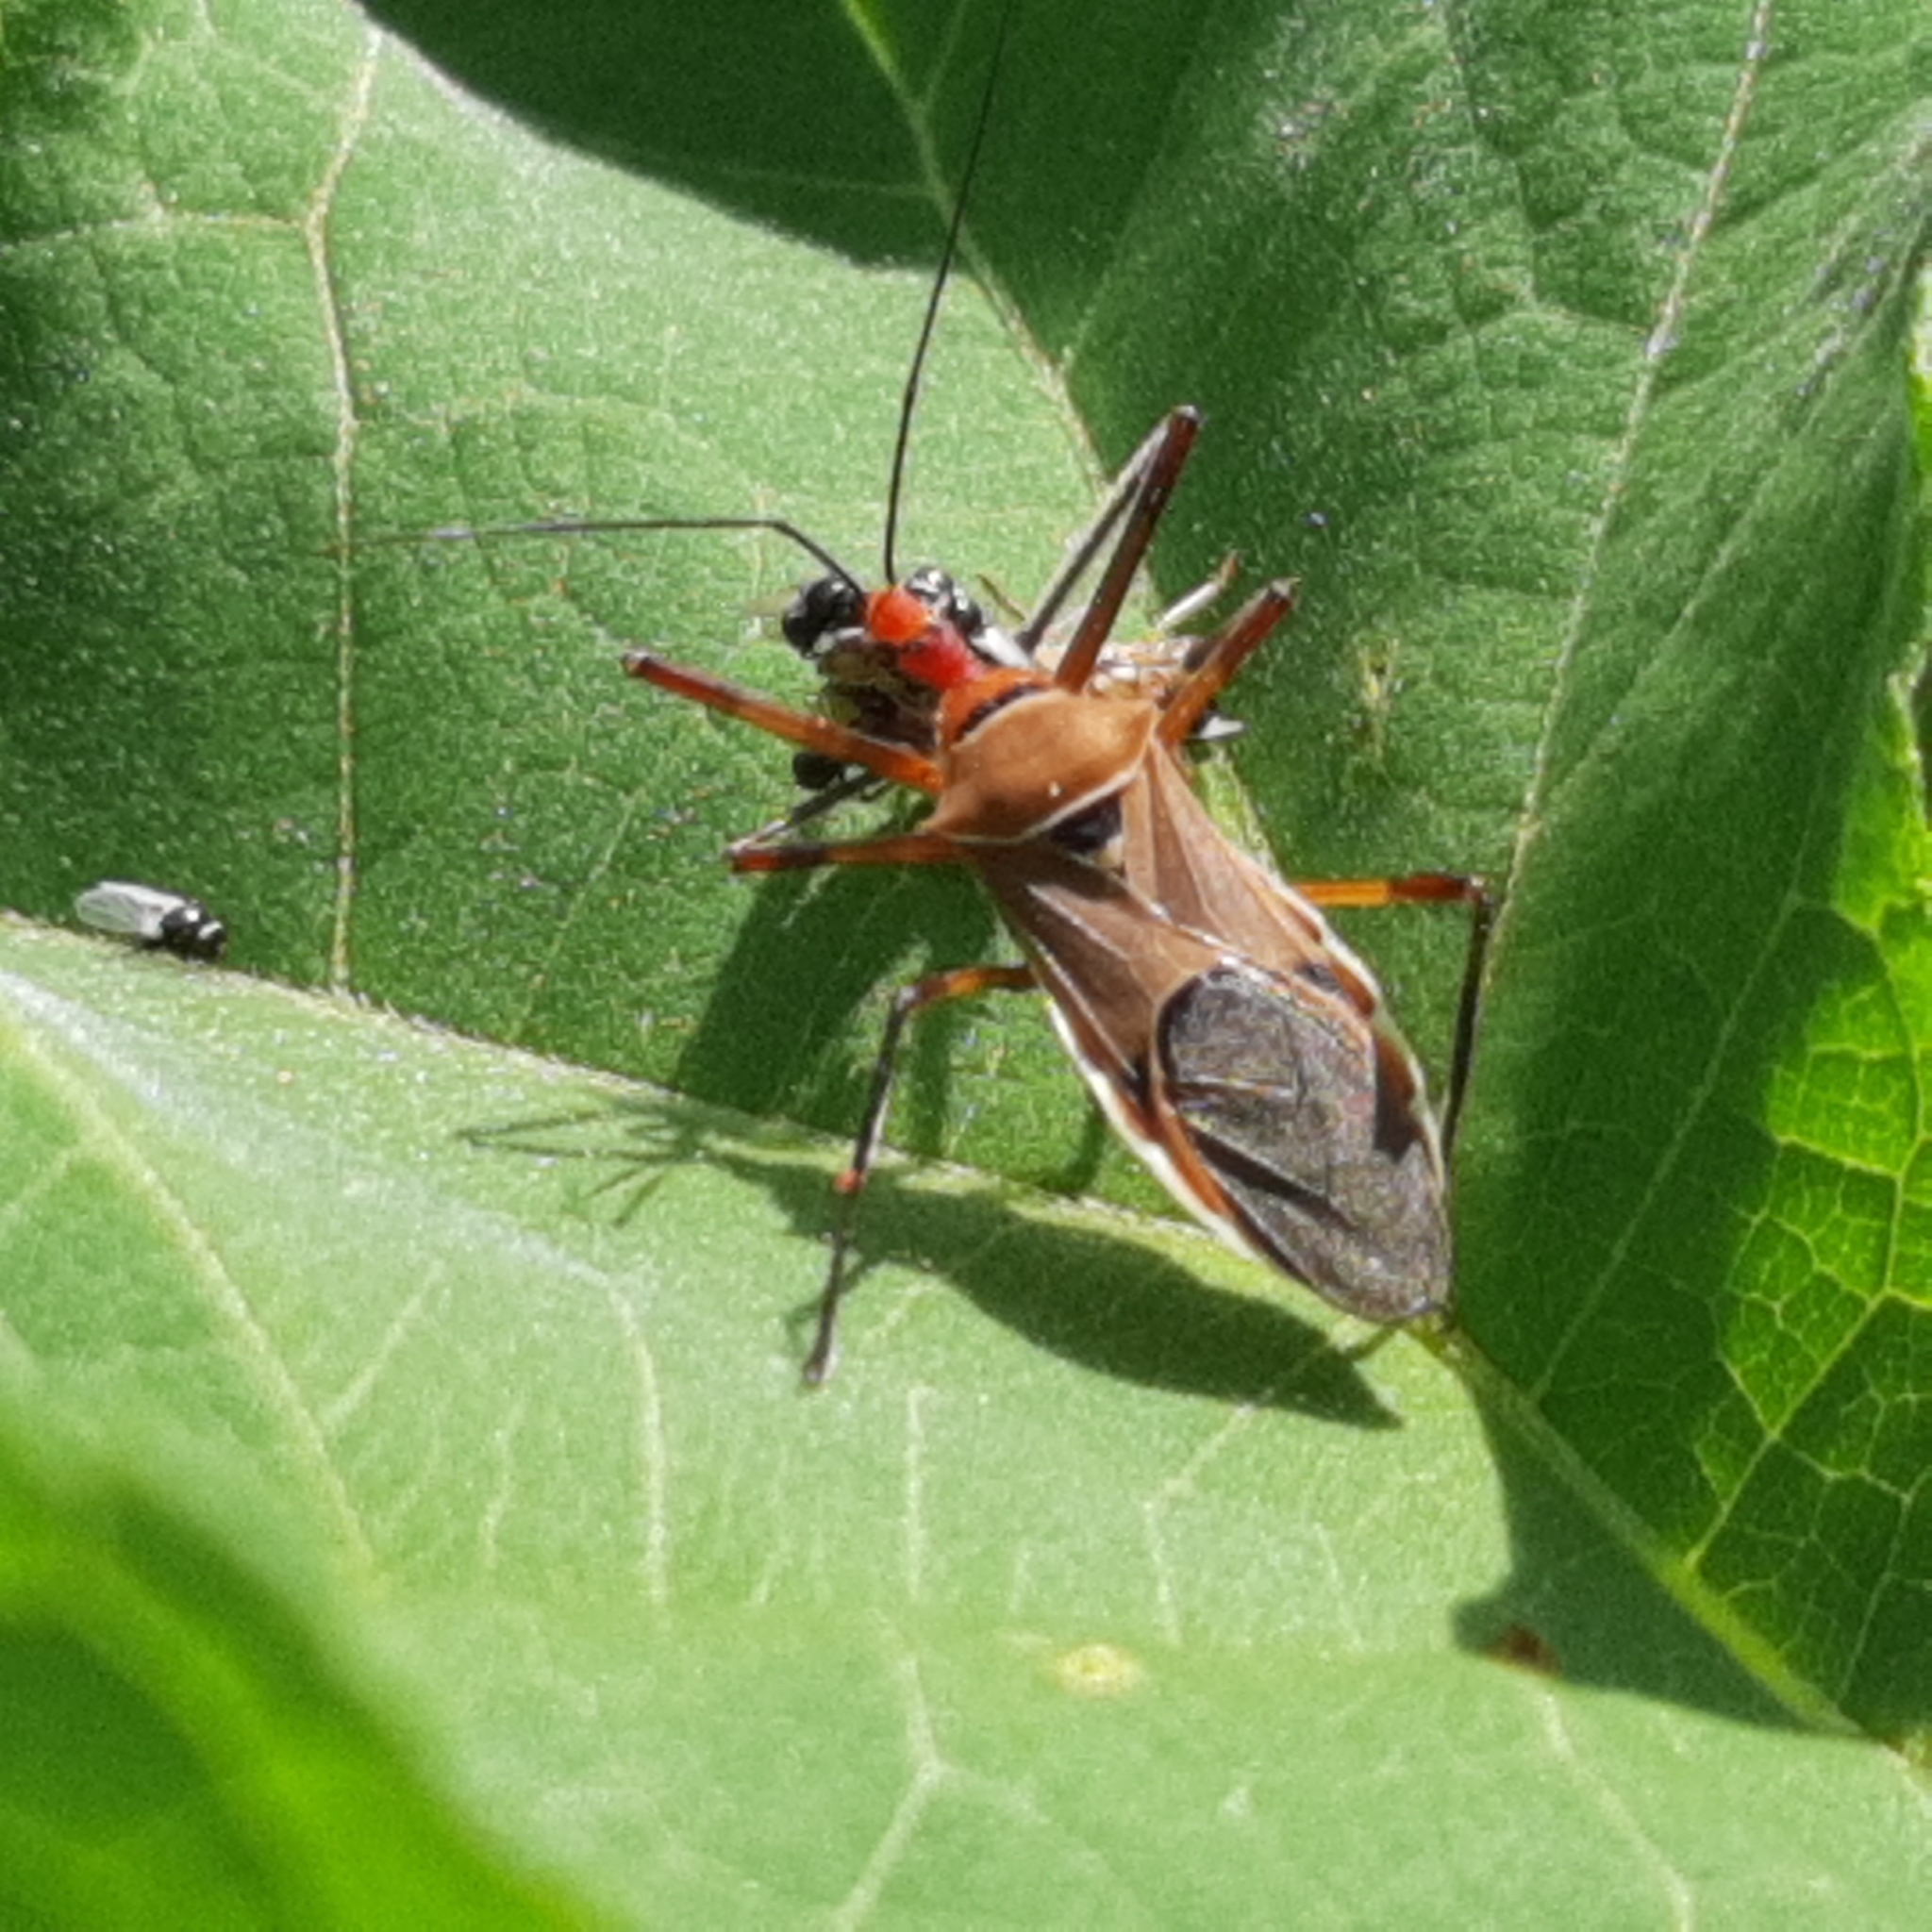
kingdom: Animalia
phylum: Arthropoda
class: Insecta
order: Hemiptera
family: Reduviidae
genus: Zelus
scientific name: Zelus ruficeps
